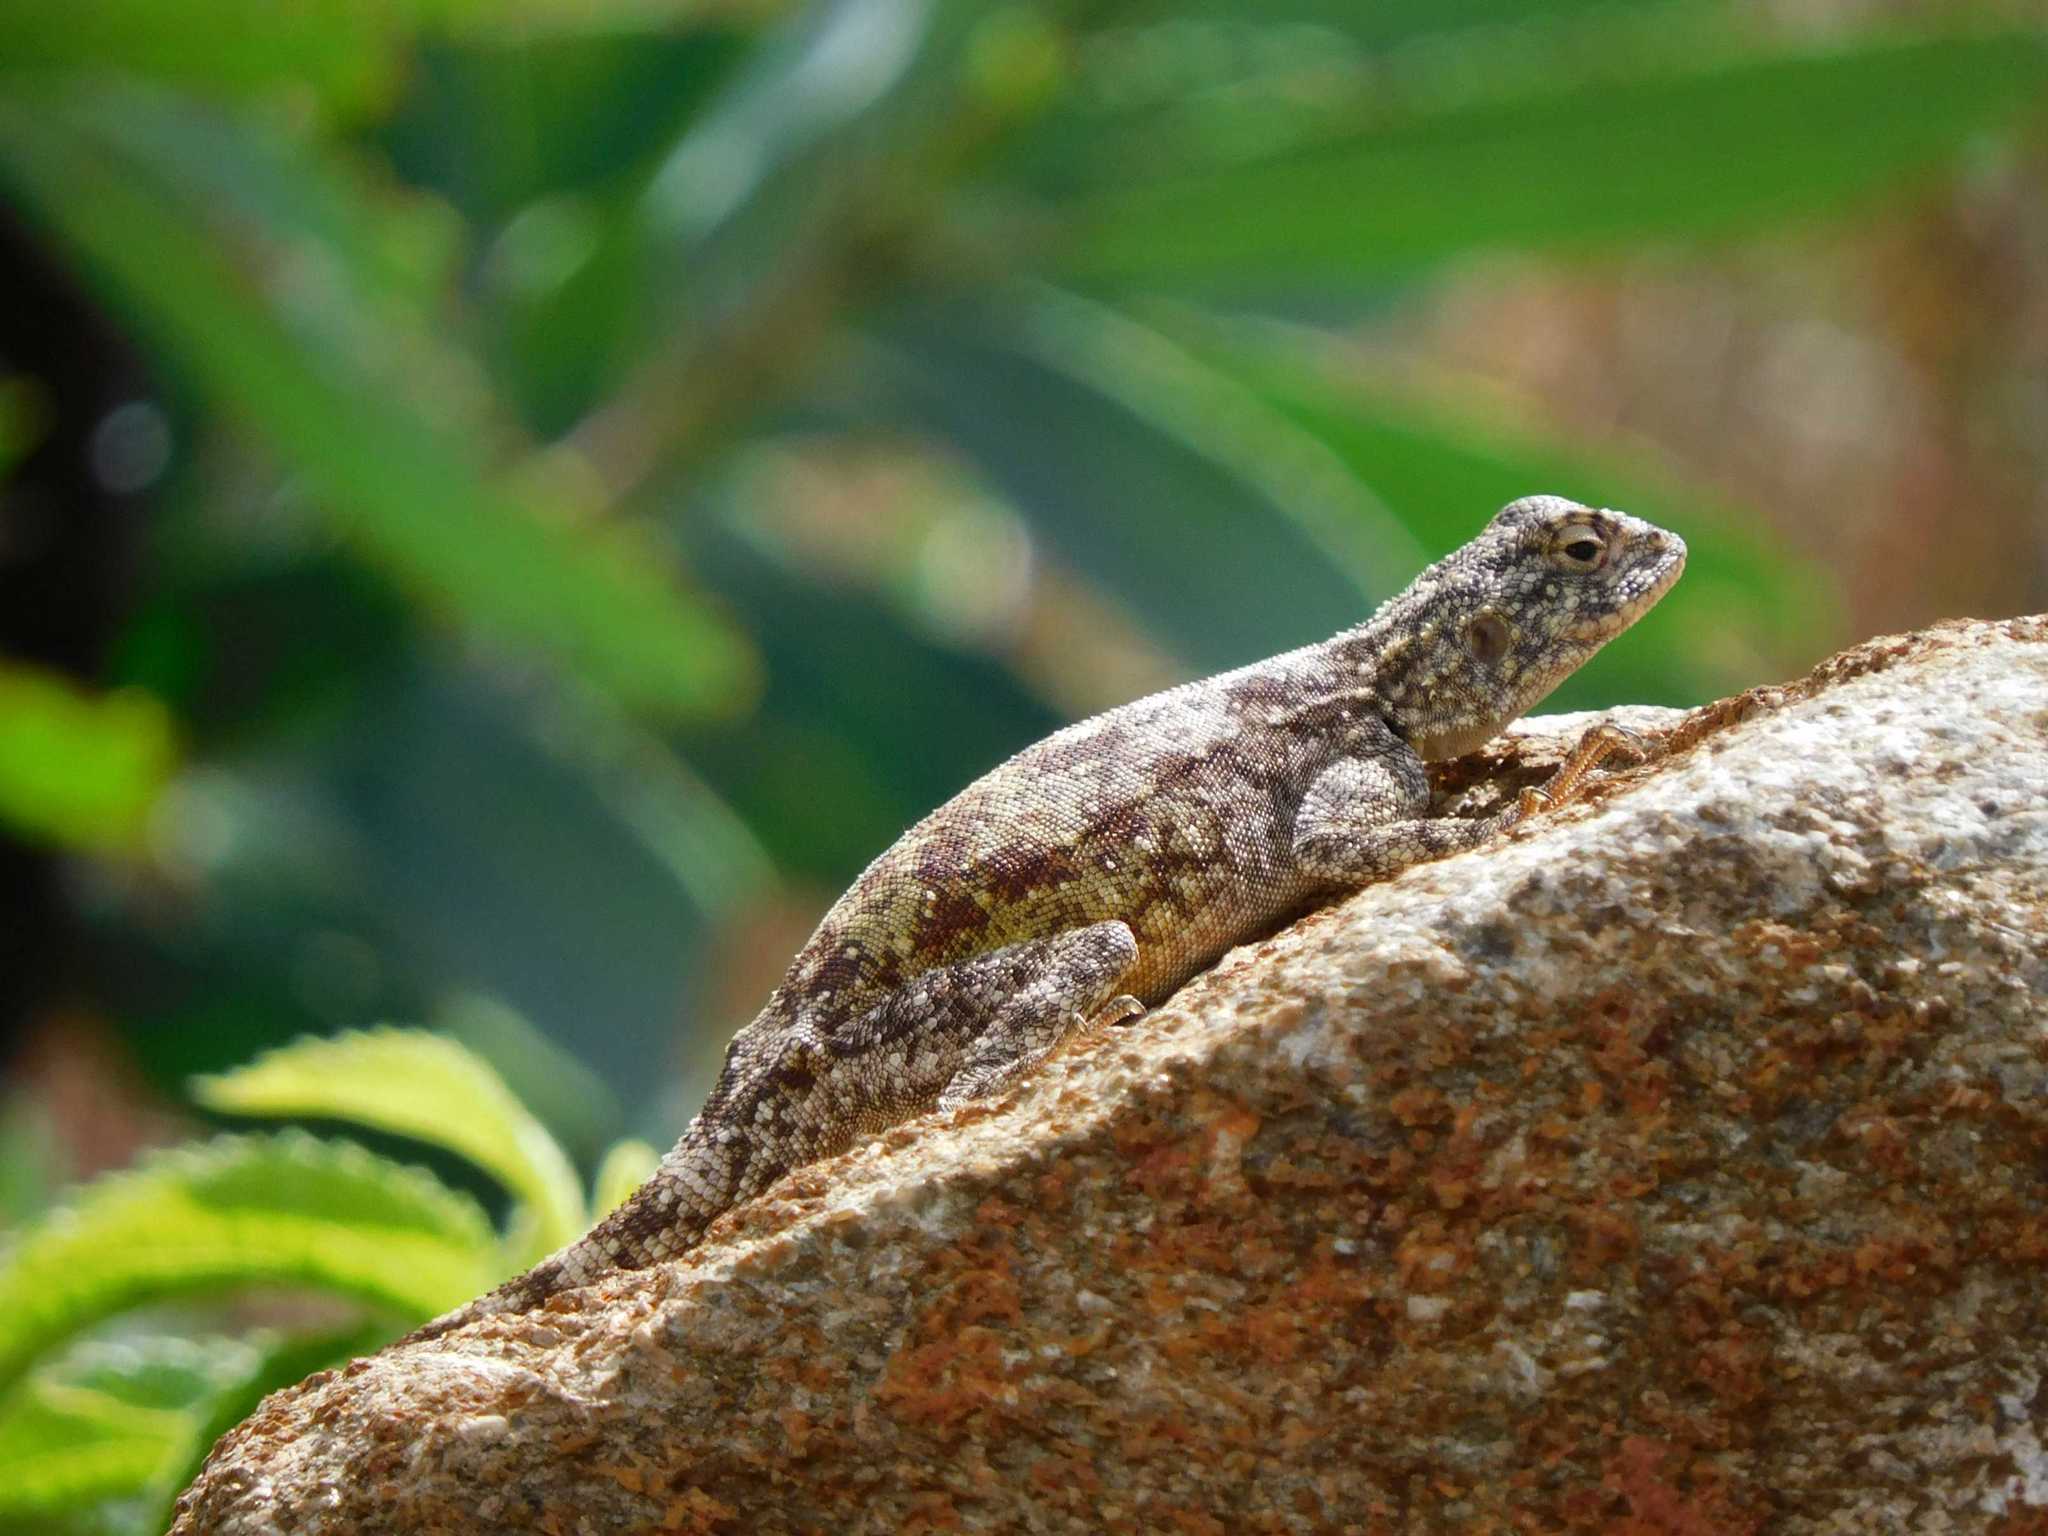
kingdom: Animalia
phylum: Chordata
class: Squamata
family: Agamidae
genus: Agama
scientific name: Agama atra
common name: Southern african rock agama
